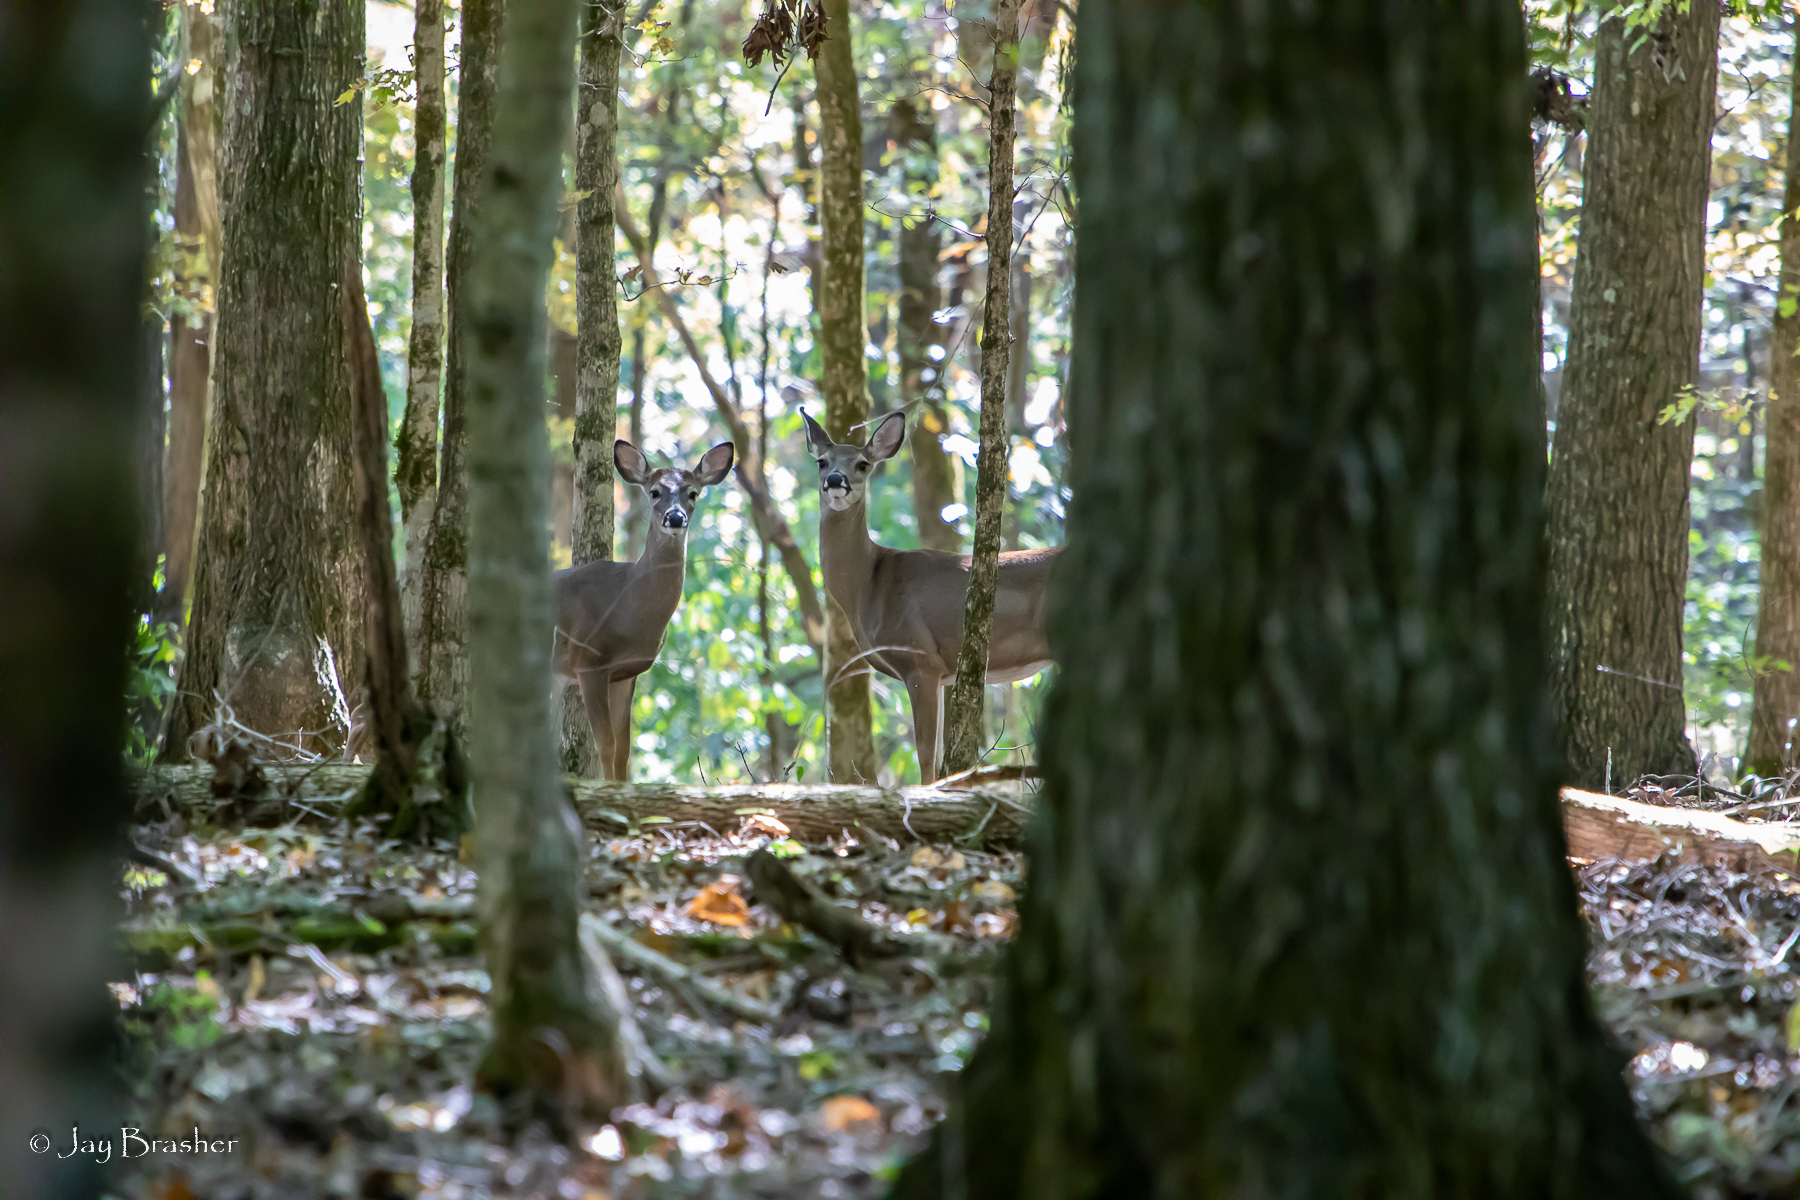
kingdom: Animalia
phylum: Chordata
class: Mammalia
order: Artiodactyla
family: Cervidae
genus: Odocoileus
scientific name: Odocoileus virginianus
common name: White-tailed deer
